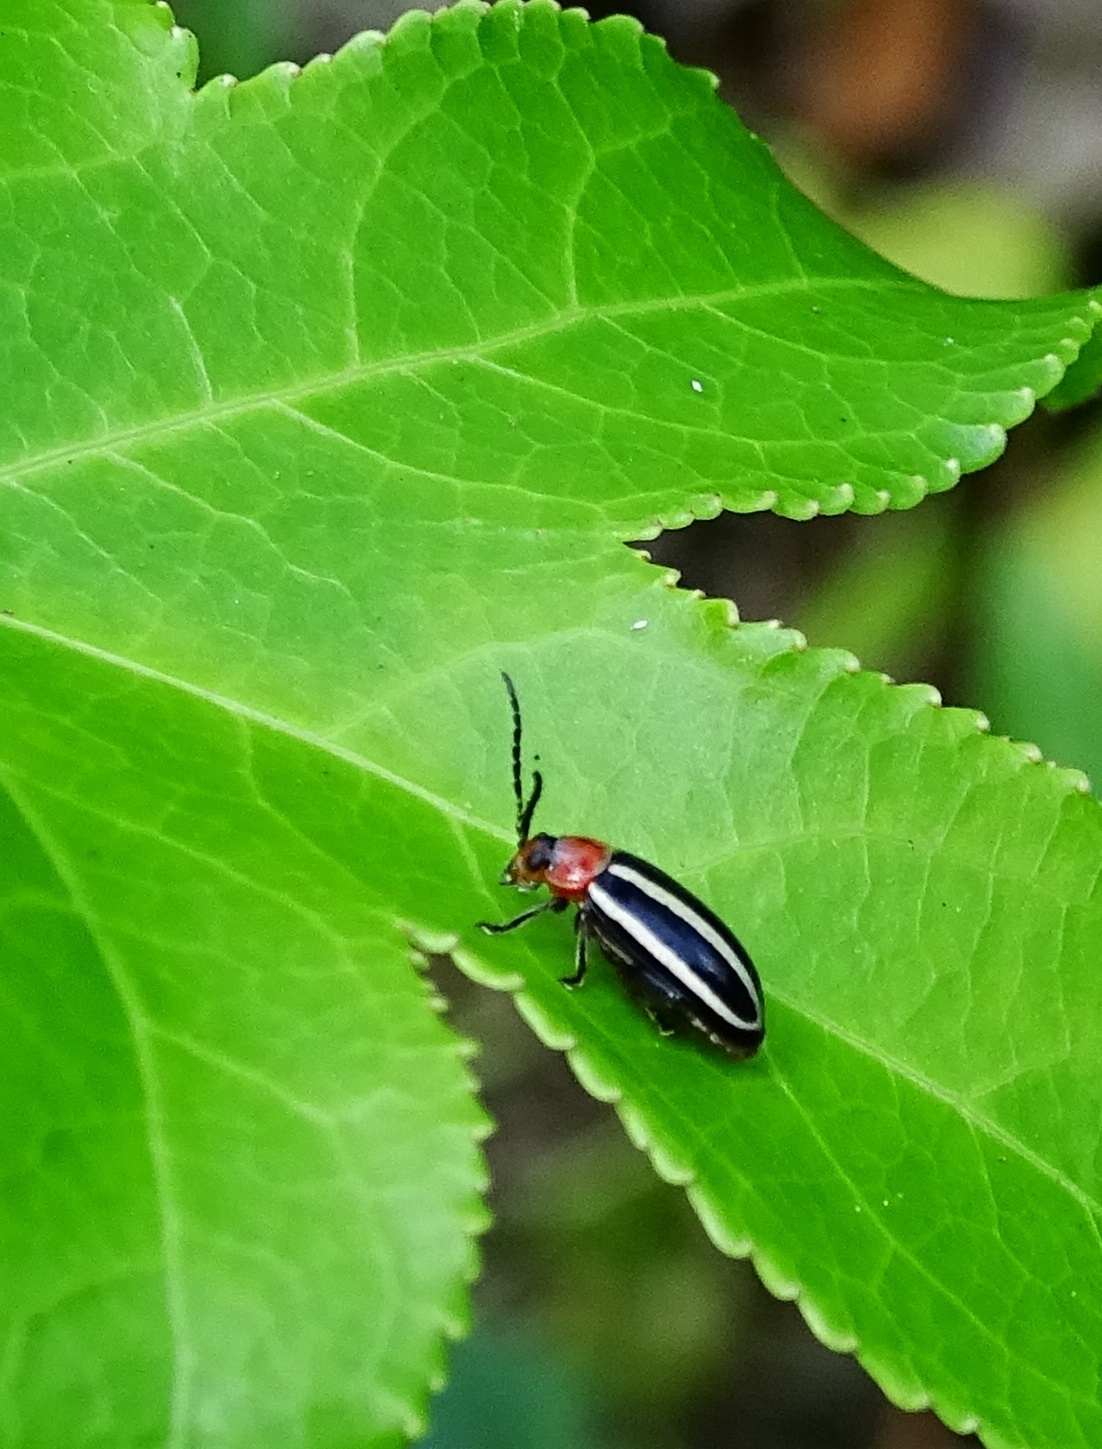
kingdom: Animalia
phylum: Arthropoda
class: Insecta
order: Coleoptera
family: Chrysomelidae
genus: Disonycha
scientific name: Disonycha glabrata
